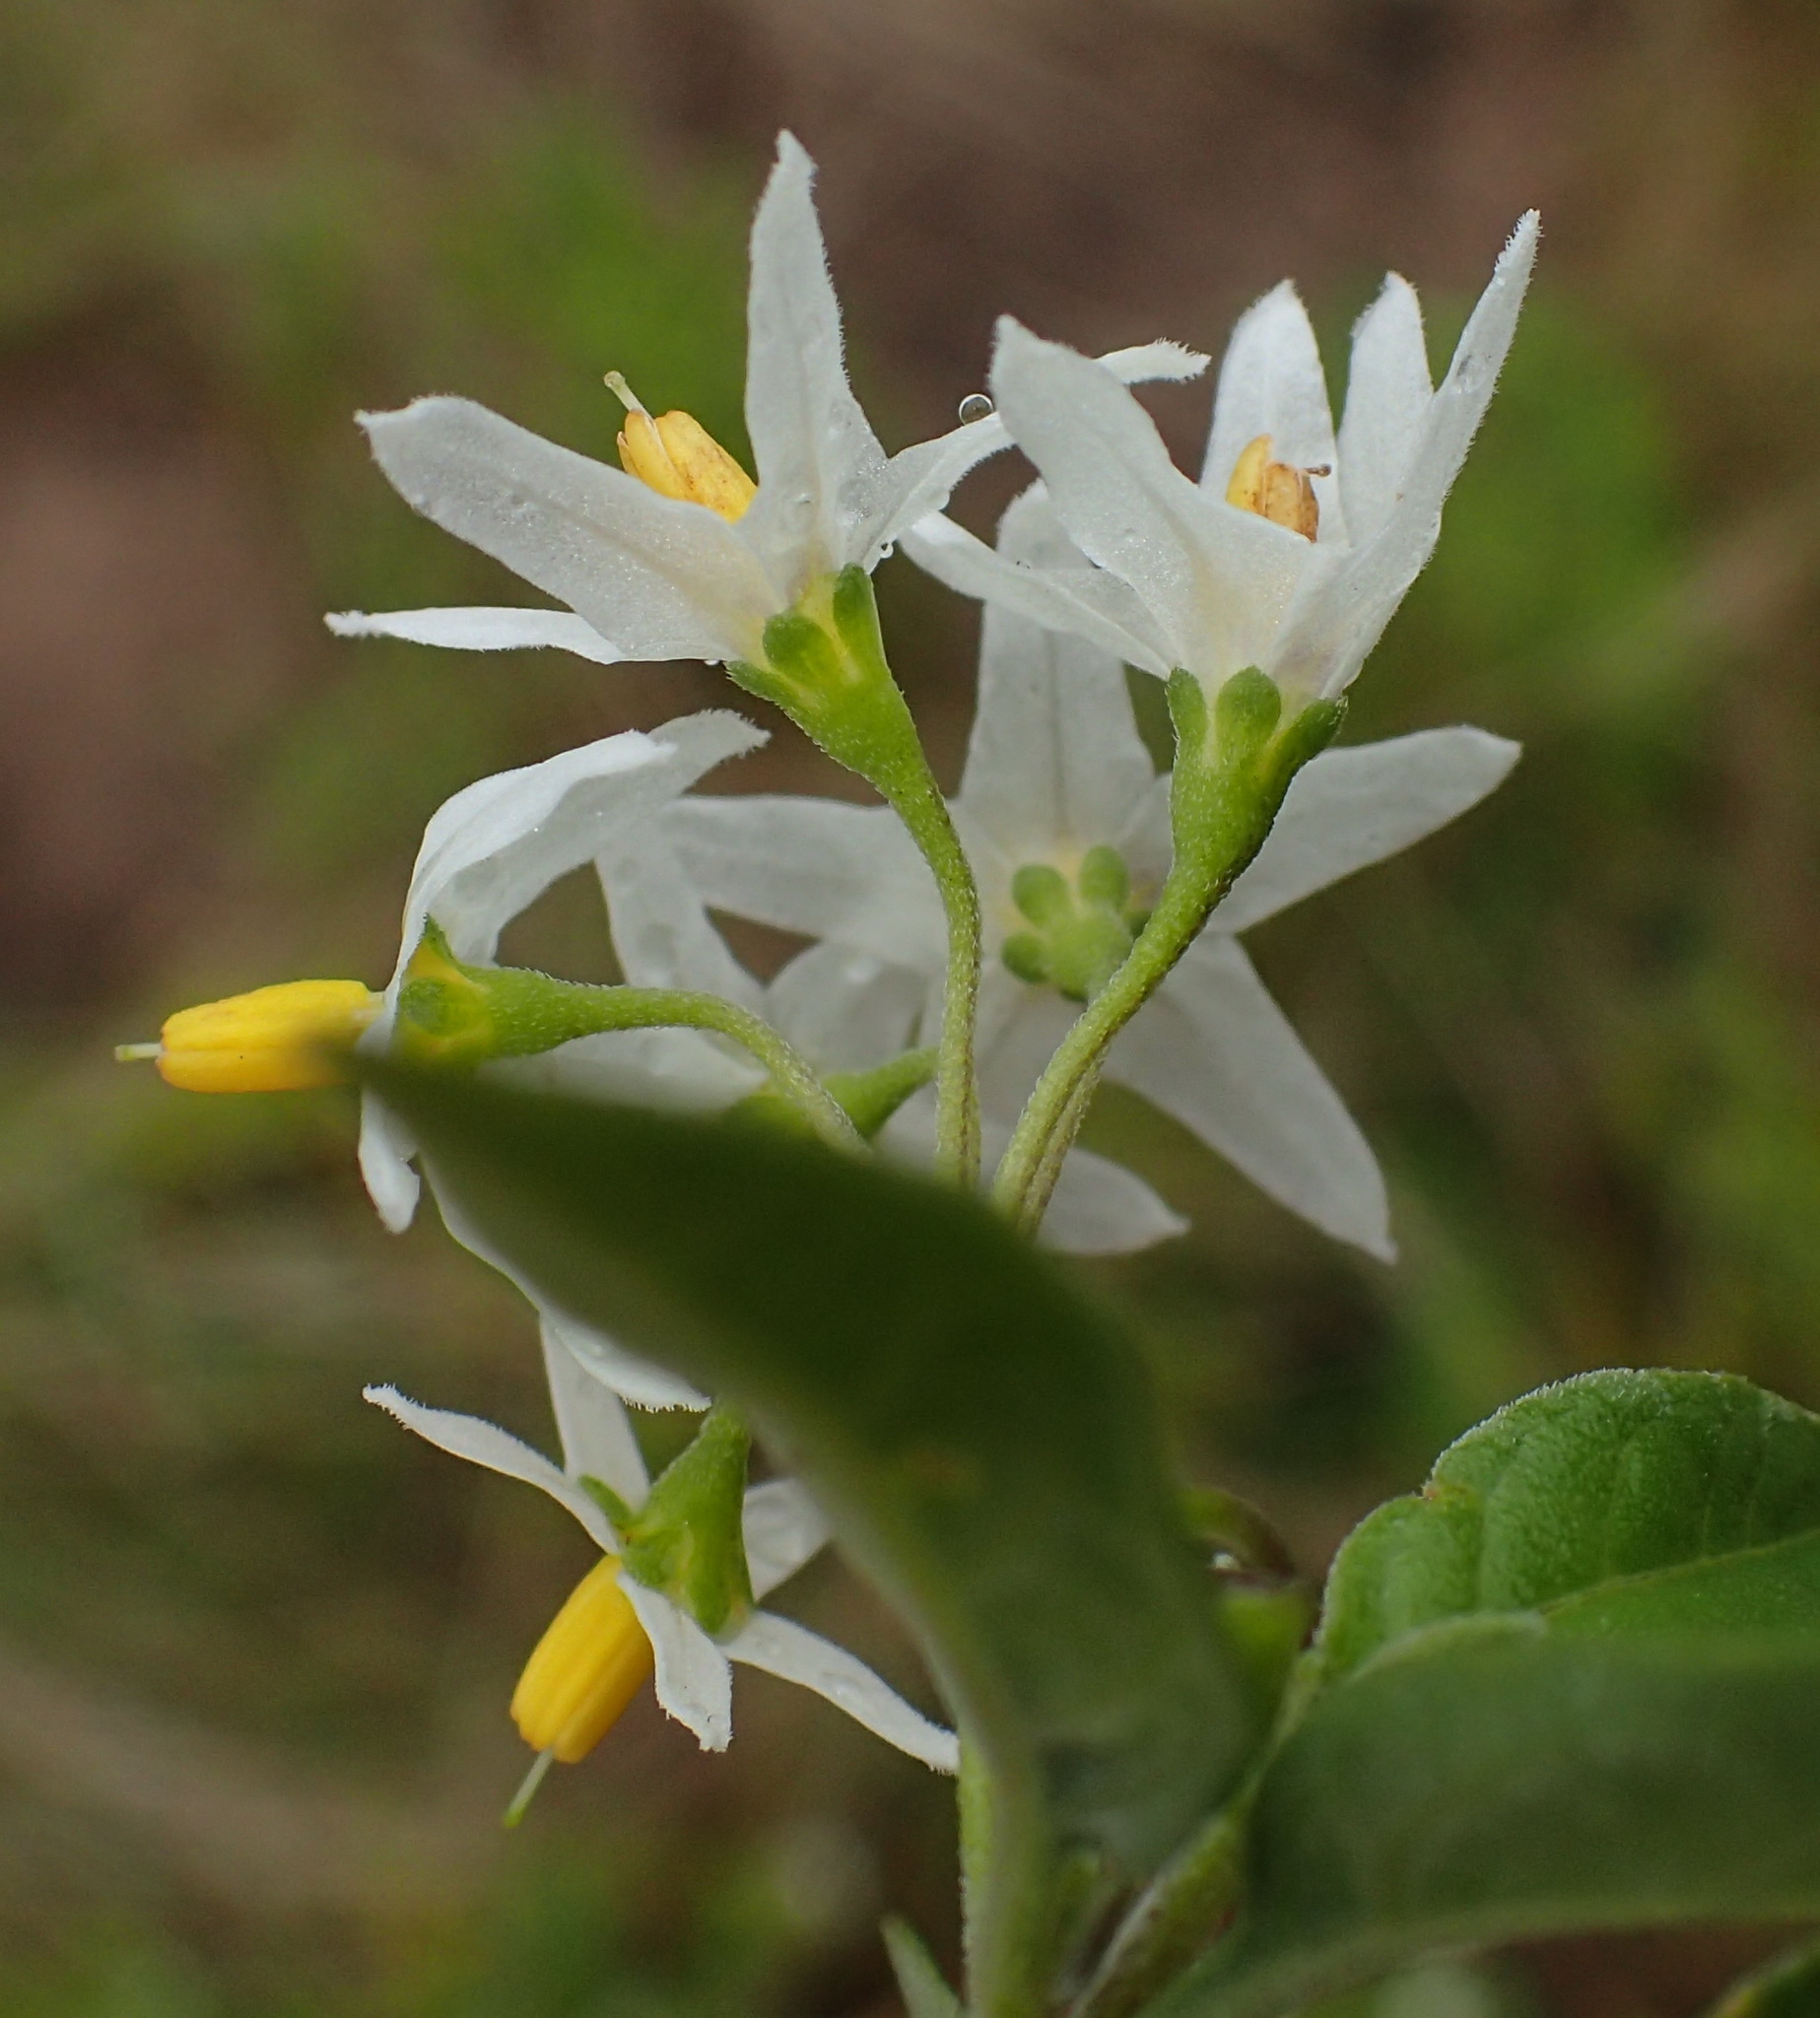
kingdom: Plantae
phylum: Tracheophyta
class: Magnoliopsida
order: Solanales
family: Solanaceae
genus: Solanum
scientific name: Solanum chenopodioides
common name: Tall nightshade
